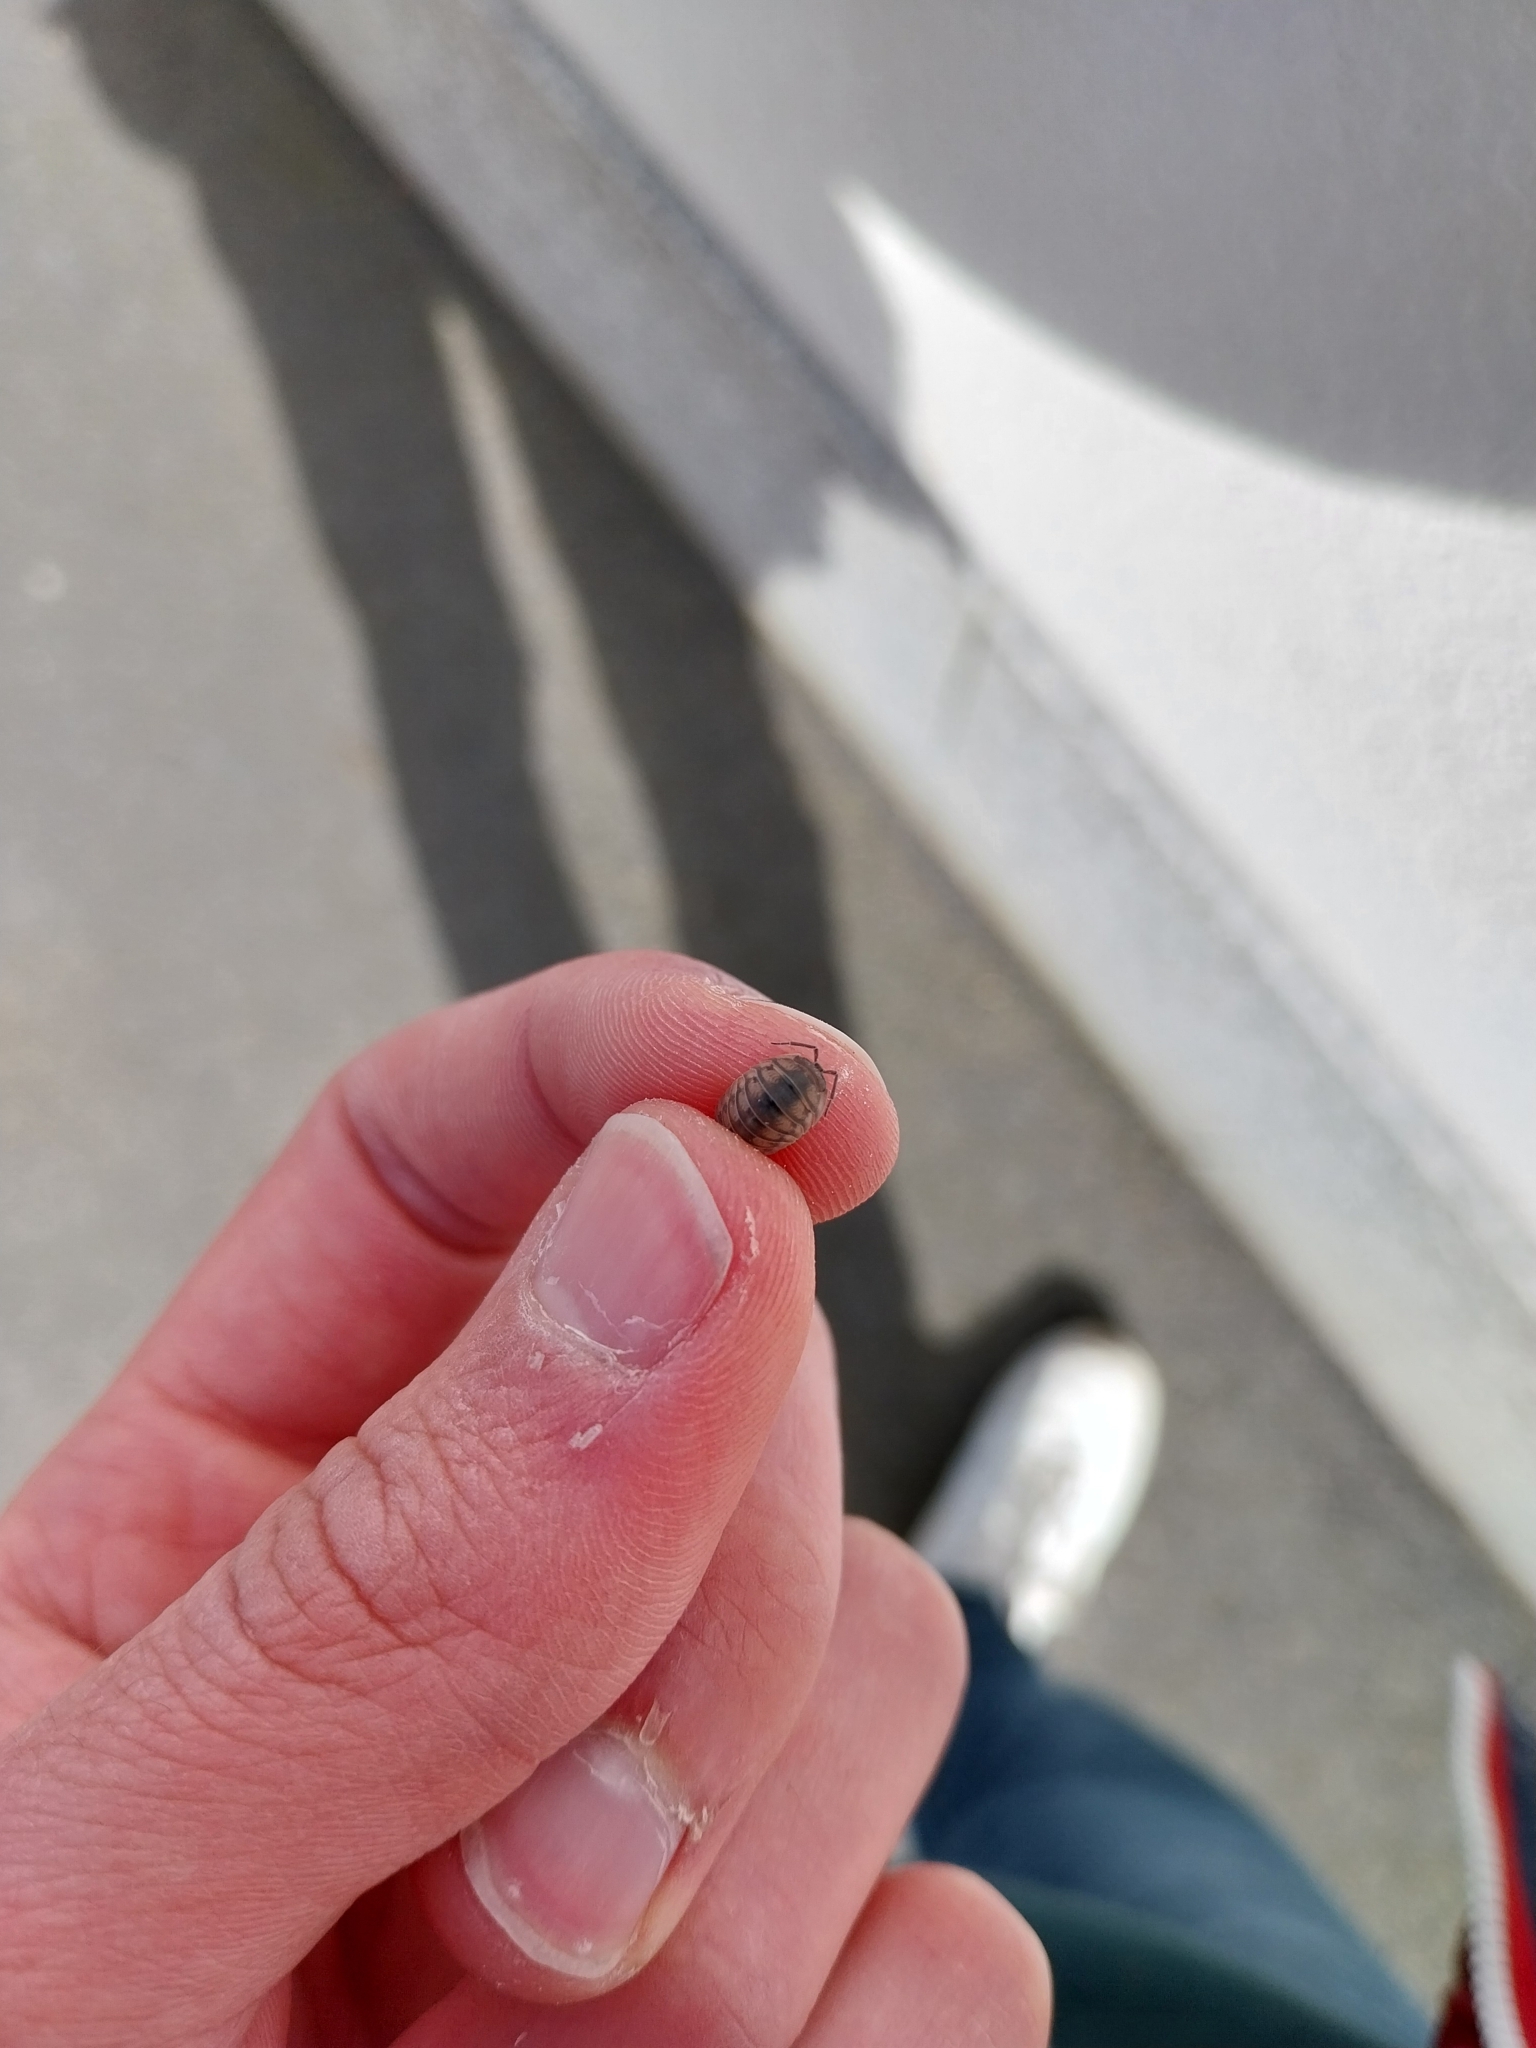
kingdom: Animalia
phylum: Arthropoda
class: Malacostraca
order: Isopoda
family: Armadillidiidae
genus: Armadillidium
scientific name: Armadillidium nasatum
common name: Isopod
